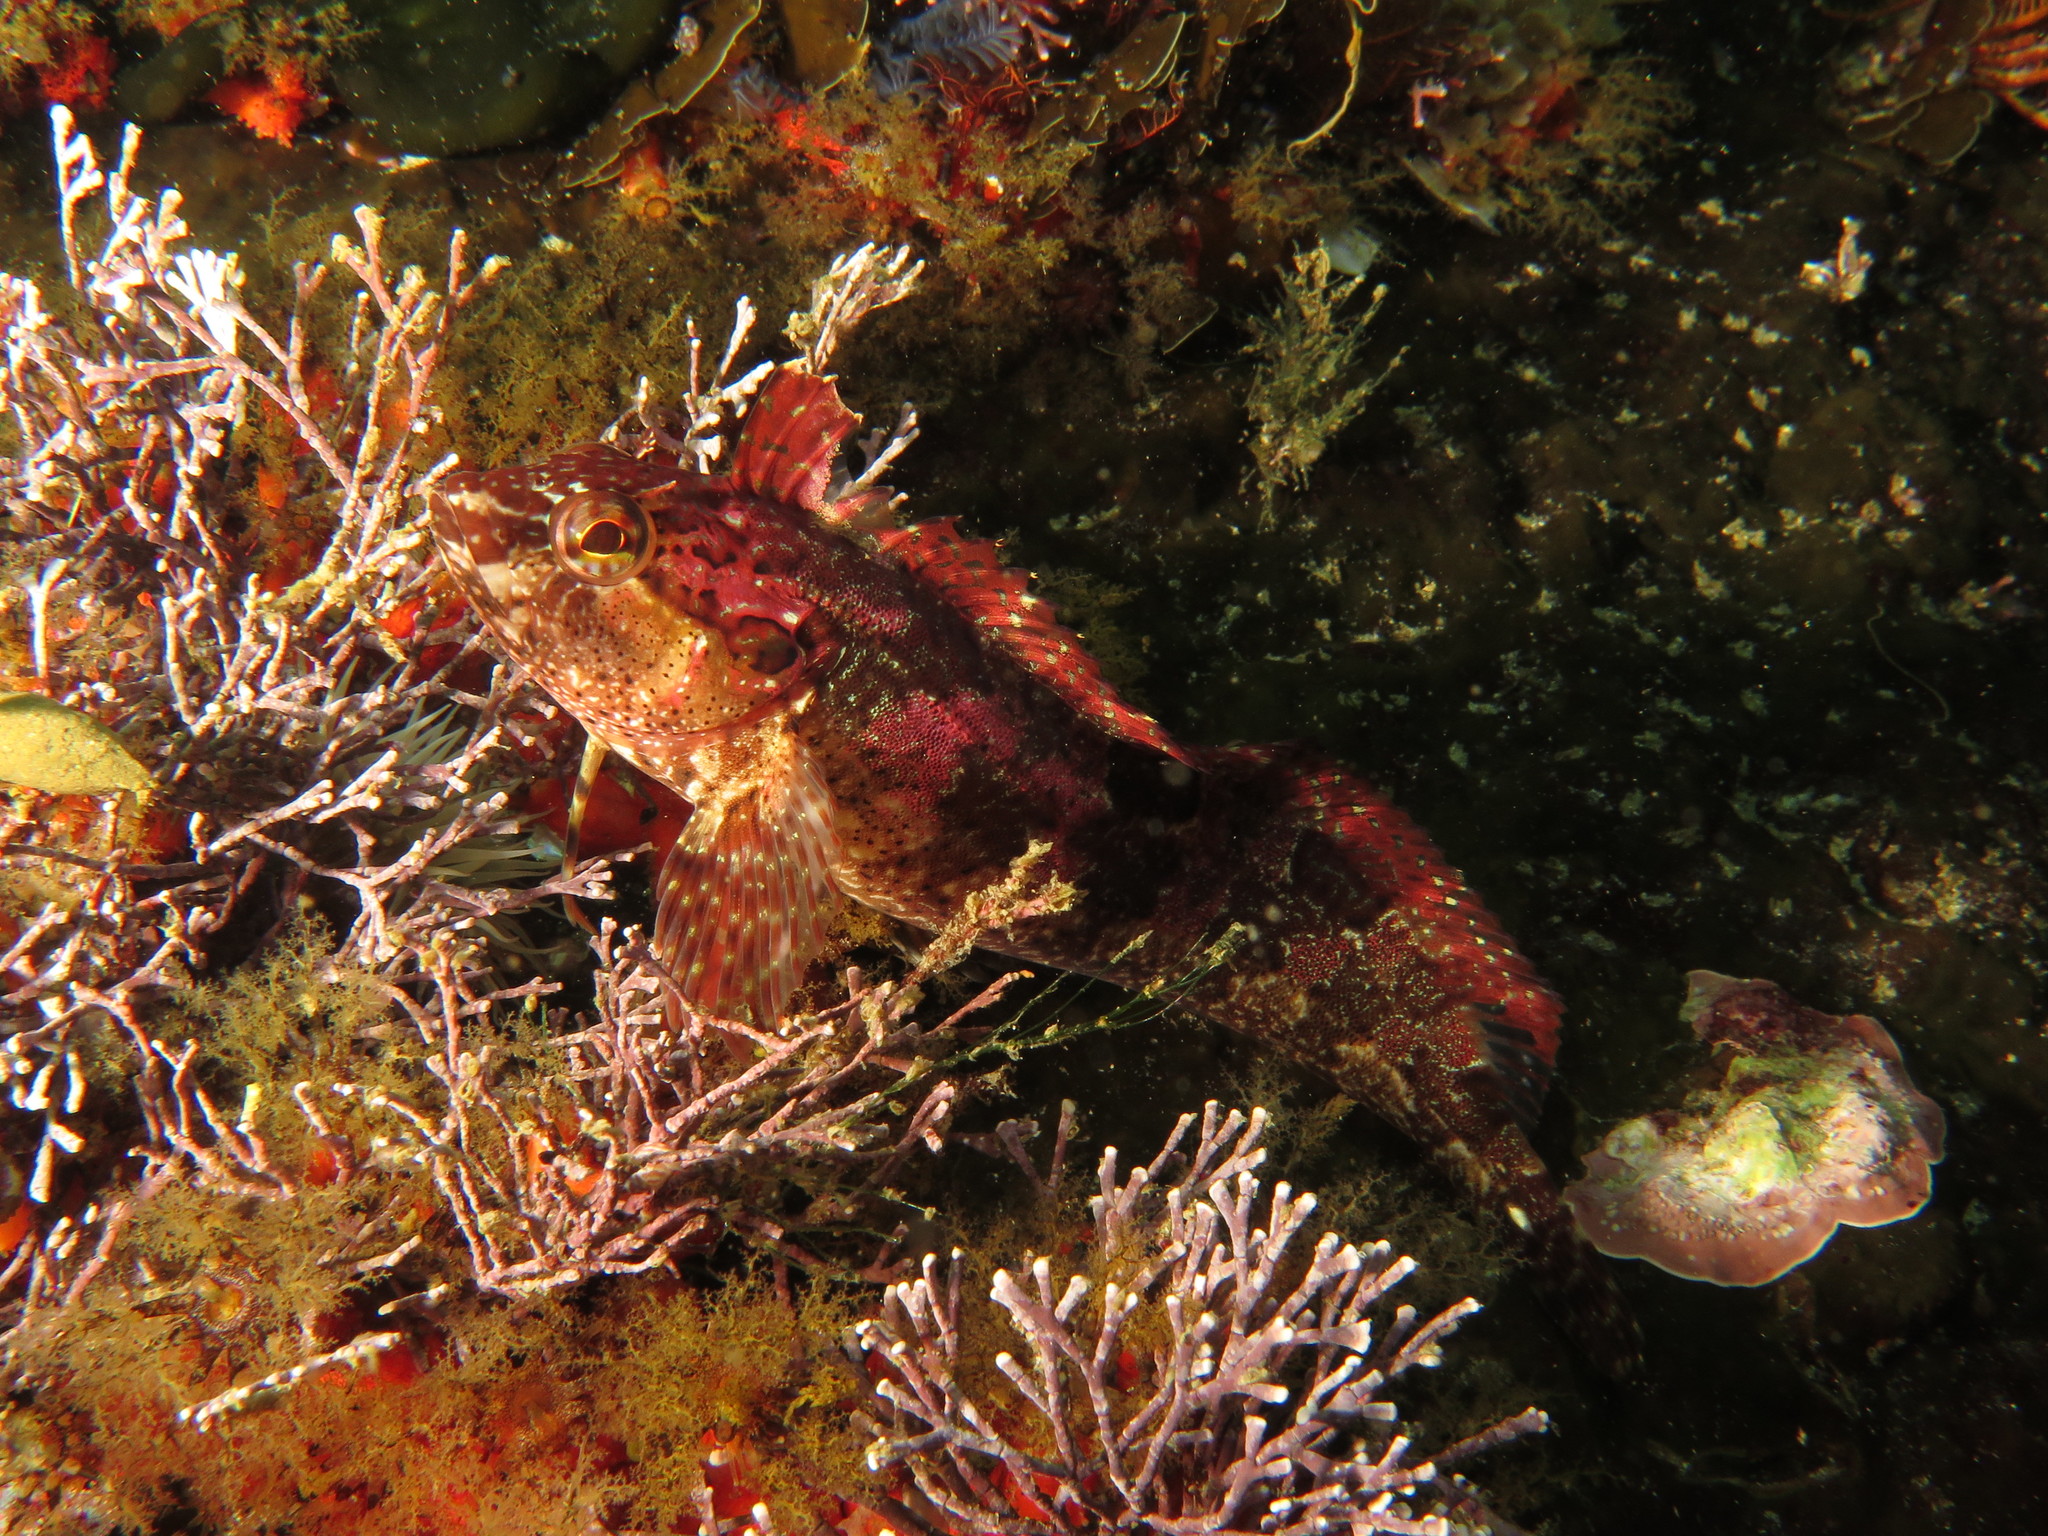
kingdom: Animalia
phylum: Chordata
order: Perciformes
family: Clinidae
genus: Clinus
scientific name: Clinus superciliosus
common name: Super klipfish
